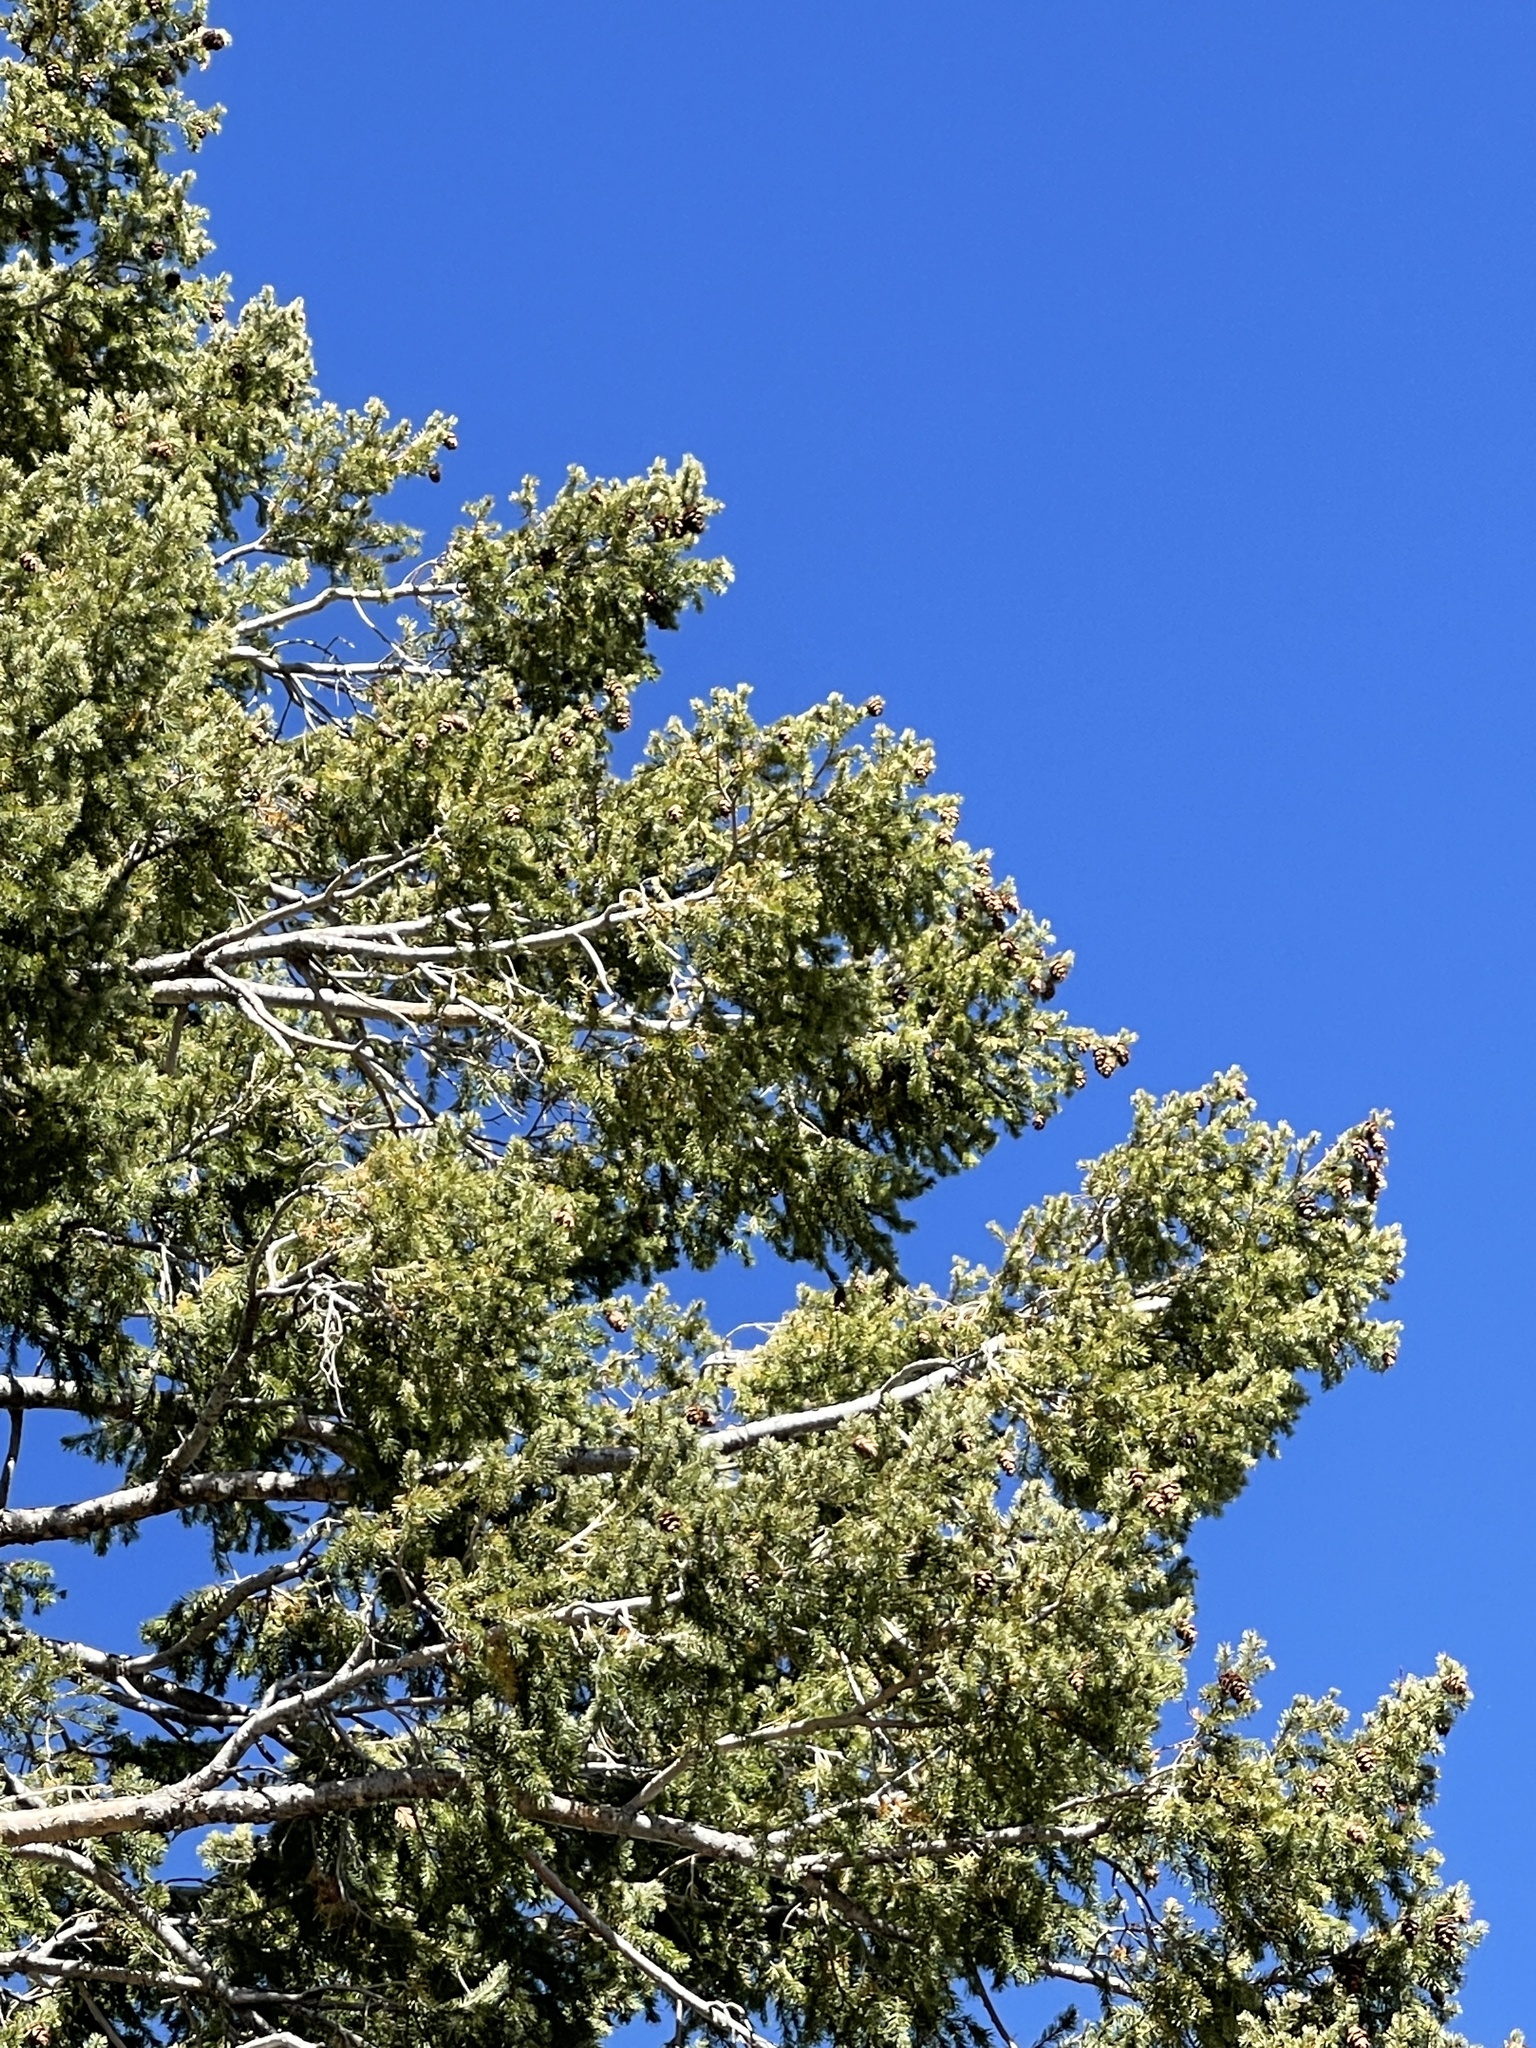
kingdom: Plantae
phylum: Tracheophyta
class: Pinopsida
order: Pinales
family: Pinaceae
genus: Pseudotsuga
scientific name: Pseudotsuga menziesii
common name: Douglas fir
